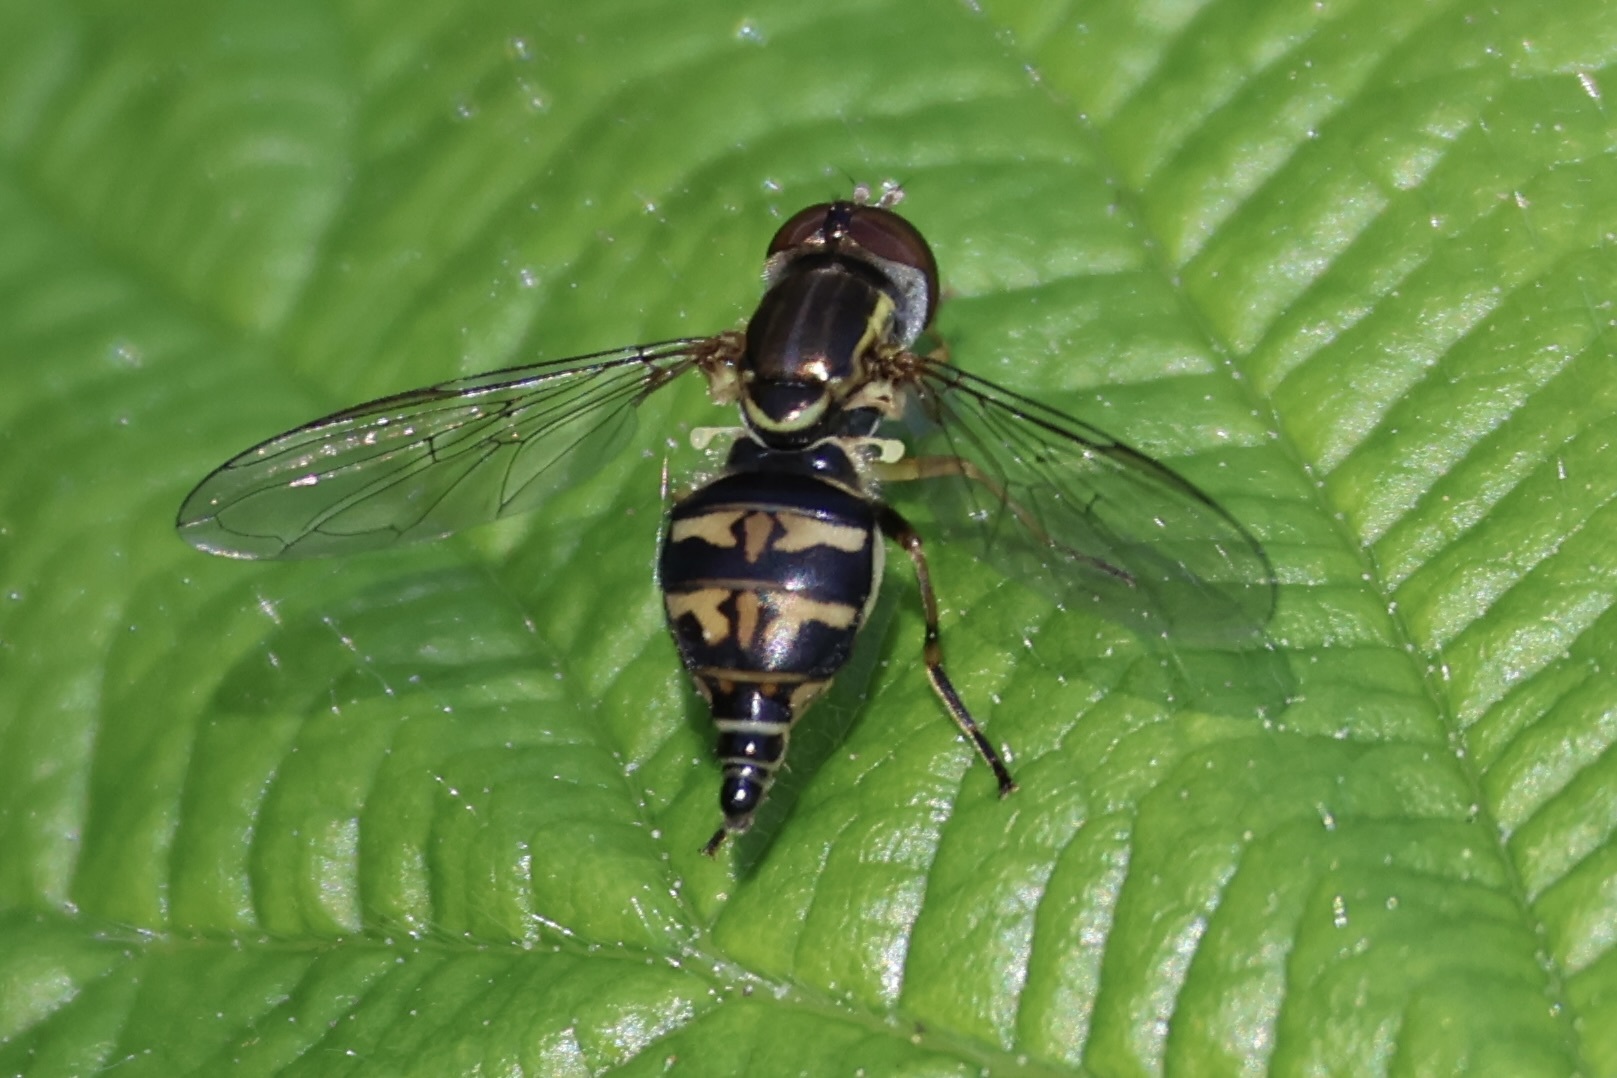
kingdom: Animalia
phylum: Arthropoda
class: Insecta
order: Diptera
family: Syrphidae
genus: Toxomerus
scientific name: Toxomerus occidentalis
